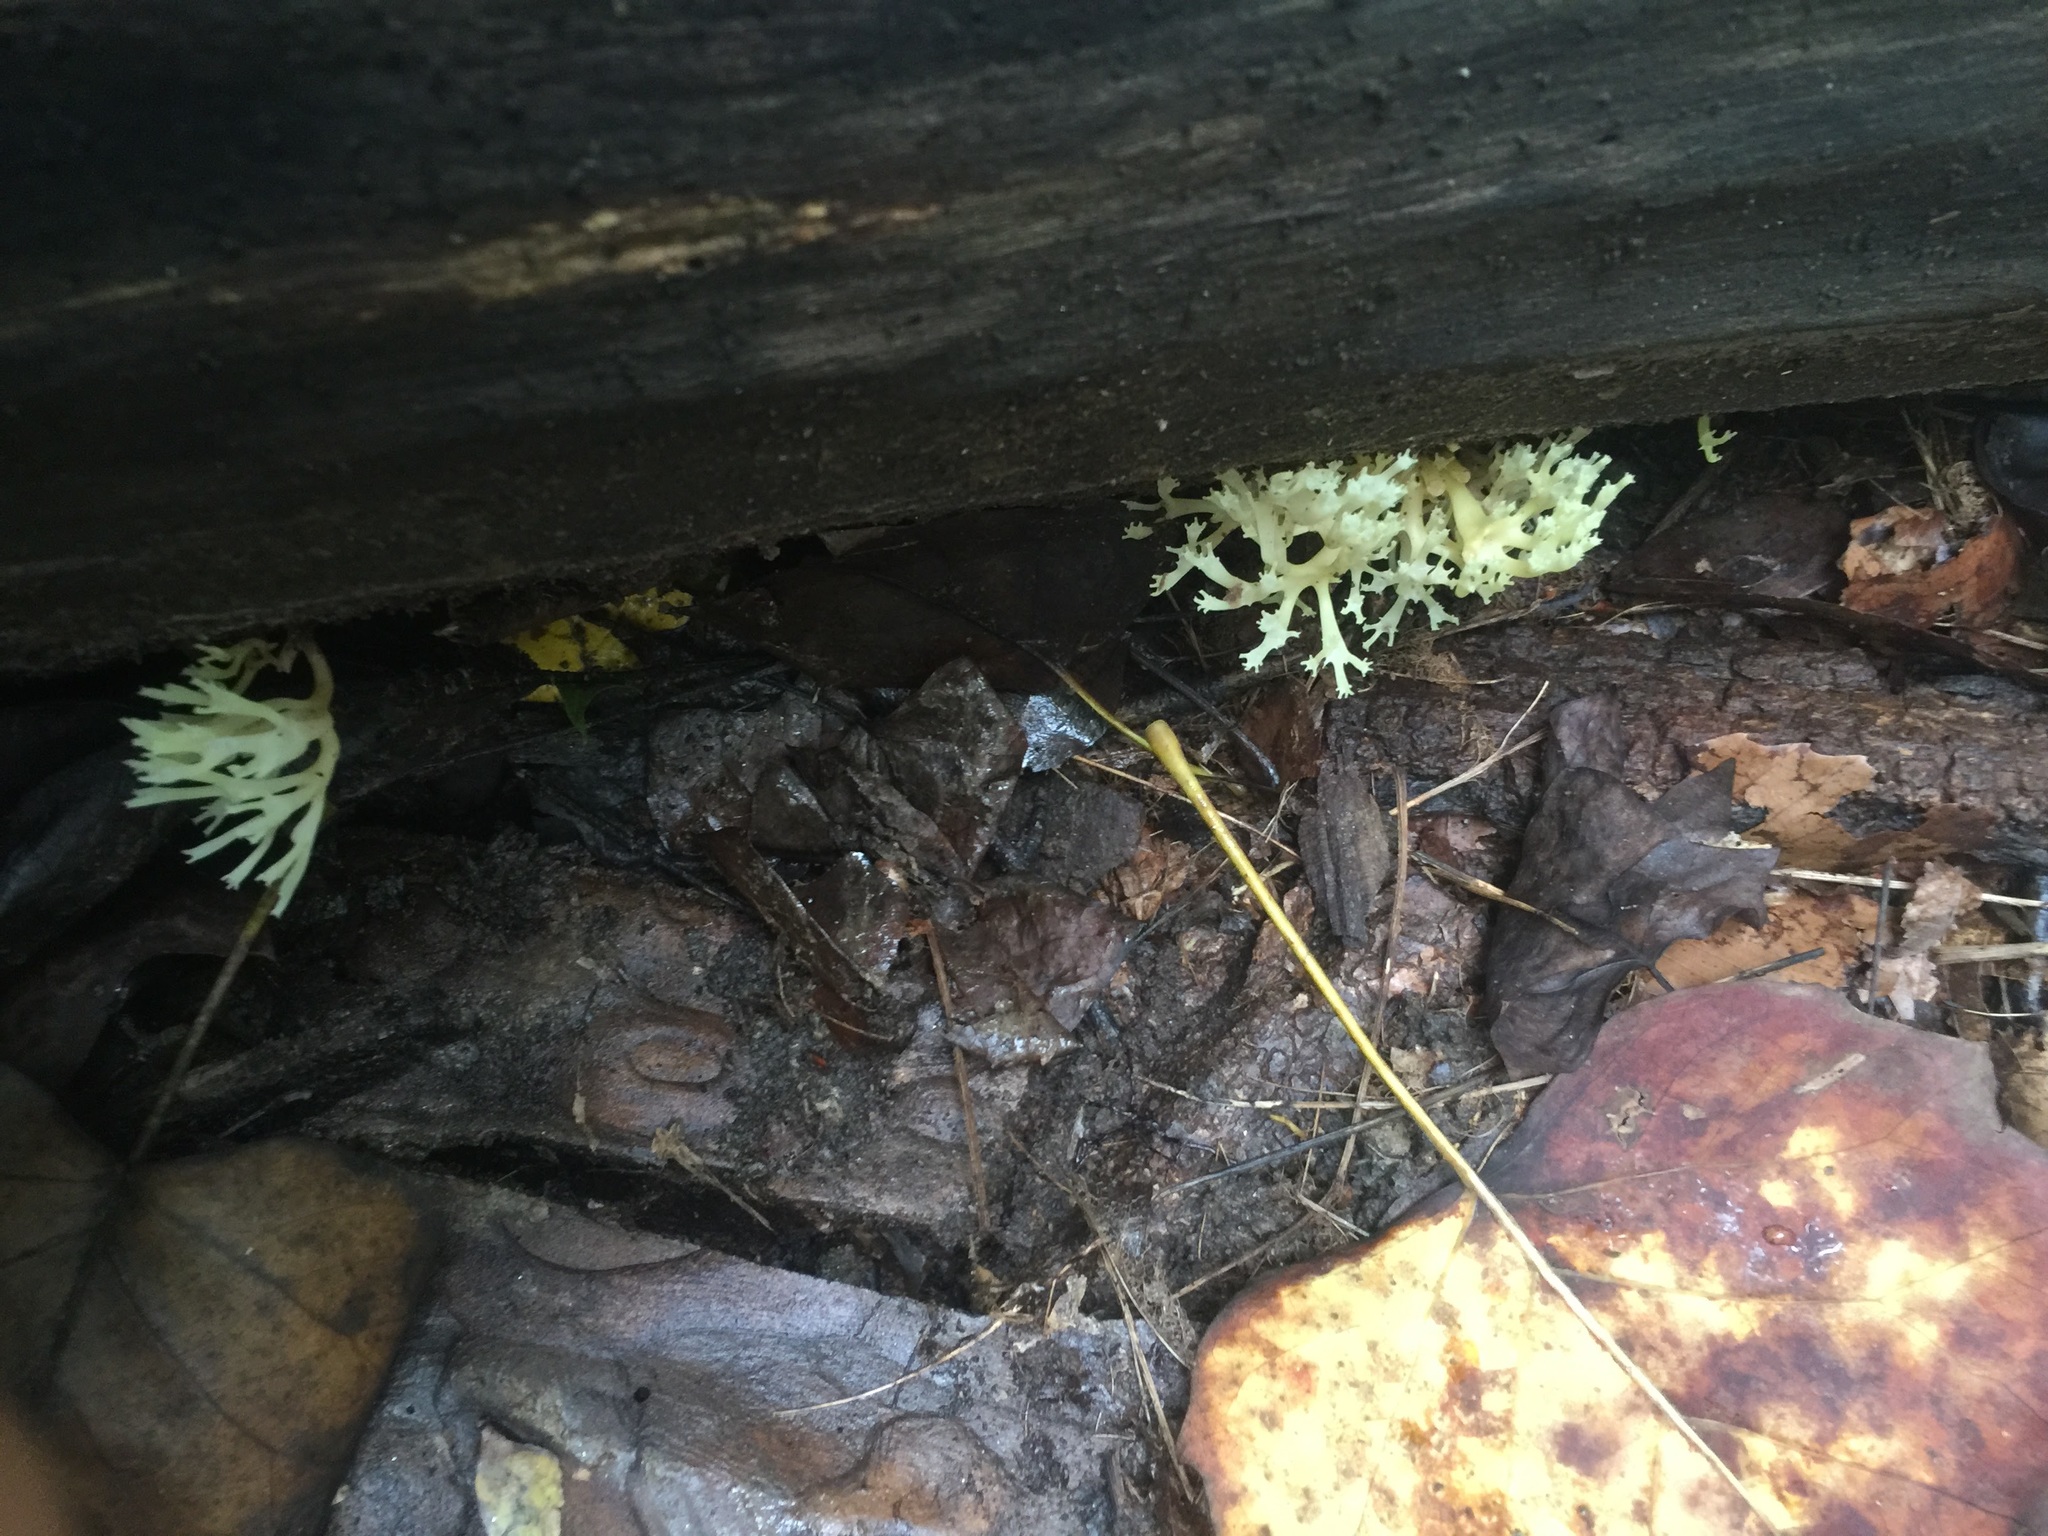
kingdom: Fungi
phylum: Basidiomycota
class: Agaricomycetes
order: Russulales
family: Auriscalpiaceae
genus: Artomyces
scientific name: Artomyces pyxidatus
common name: Crown-tipped coral fungus
